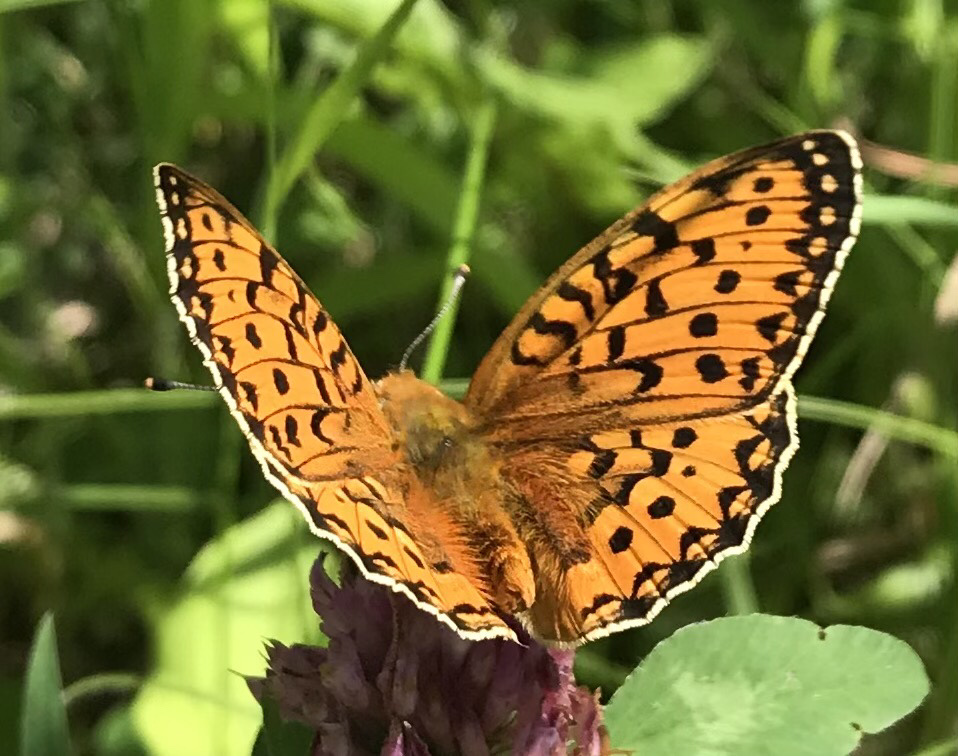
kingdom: Animalia
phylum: Arthropoda
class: Insecta
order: Lepidoptera
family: Nymphalidae
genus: Speyeria
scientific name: Speyeria aglaja
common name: Dark green fritillary
